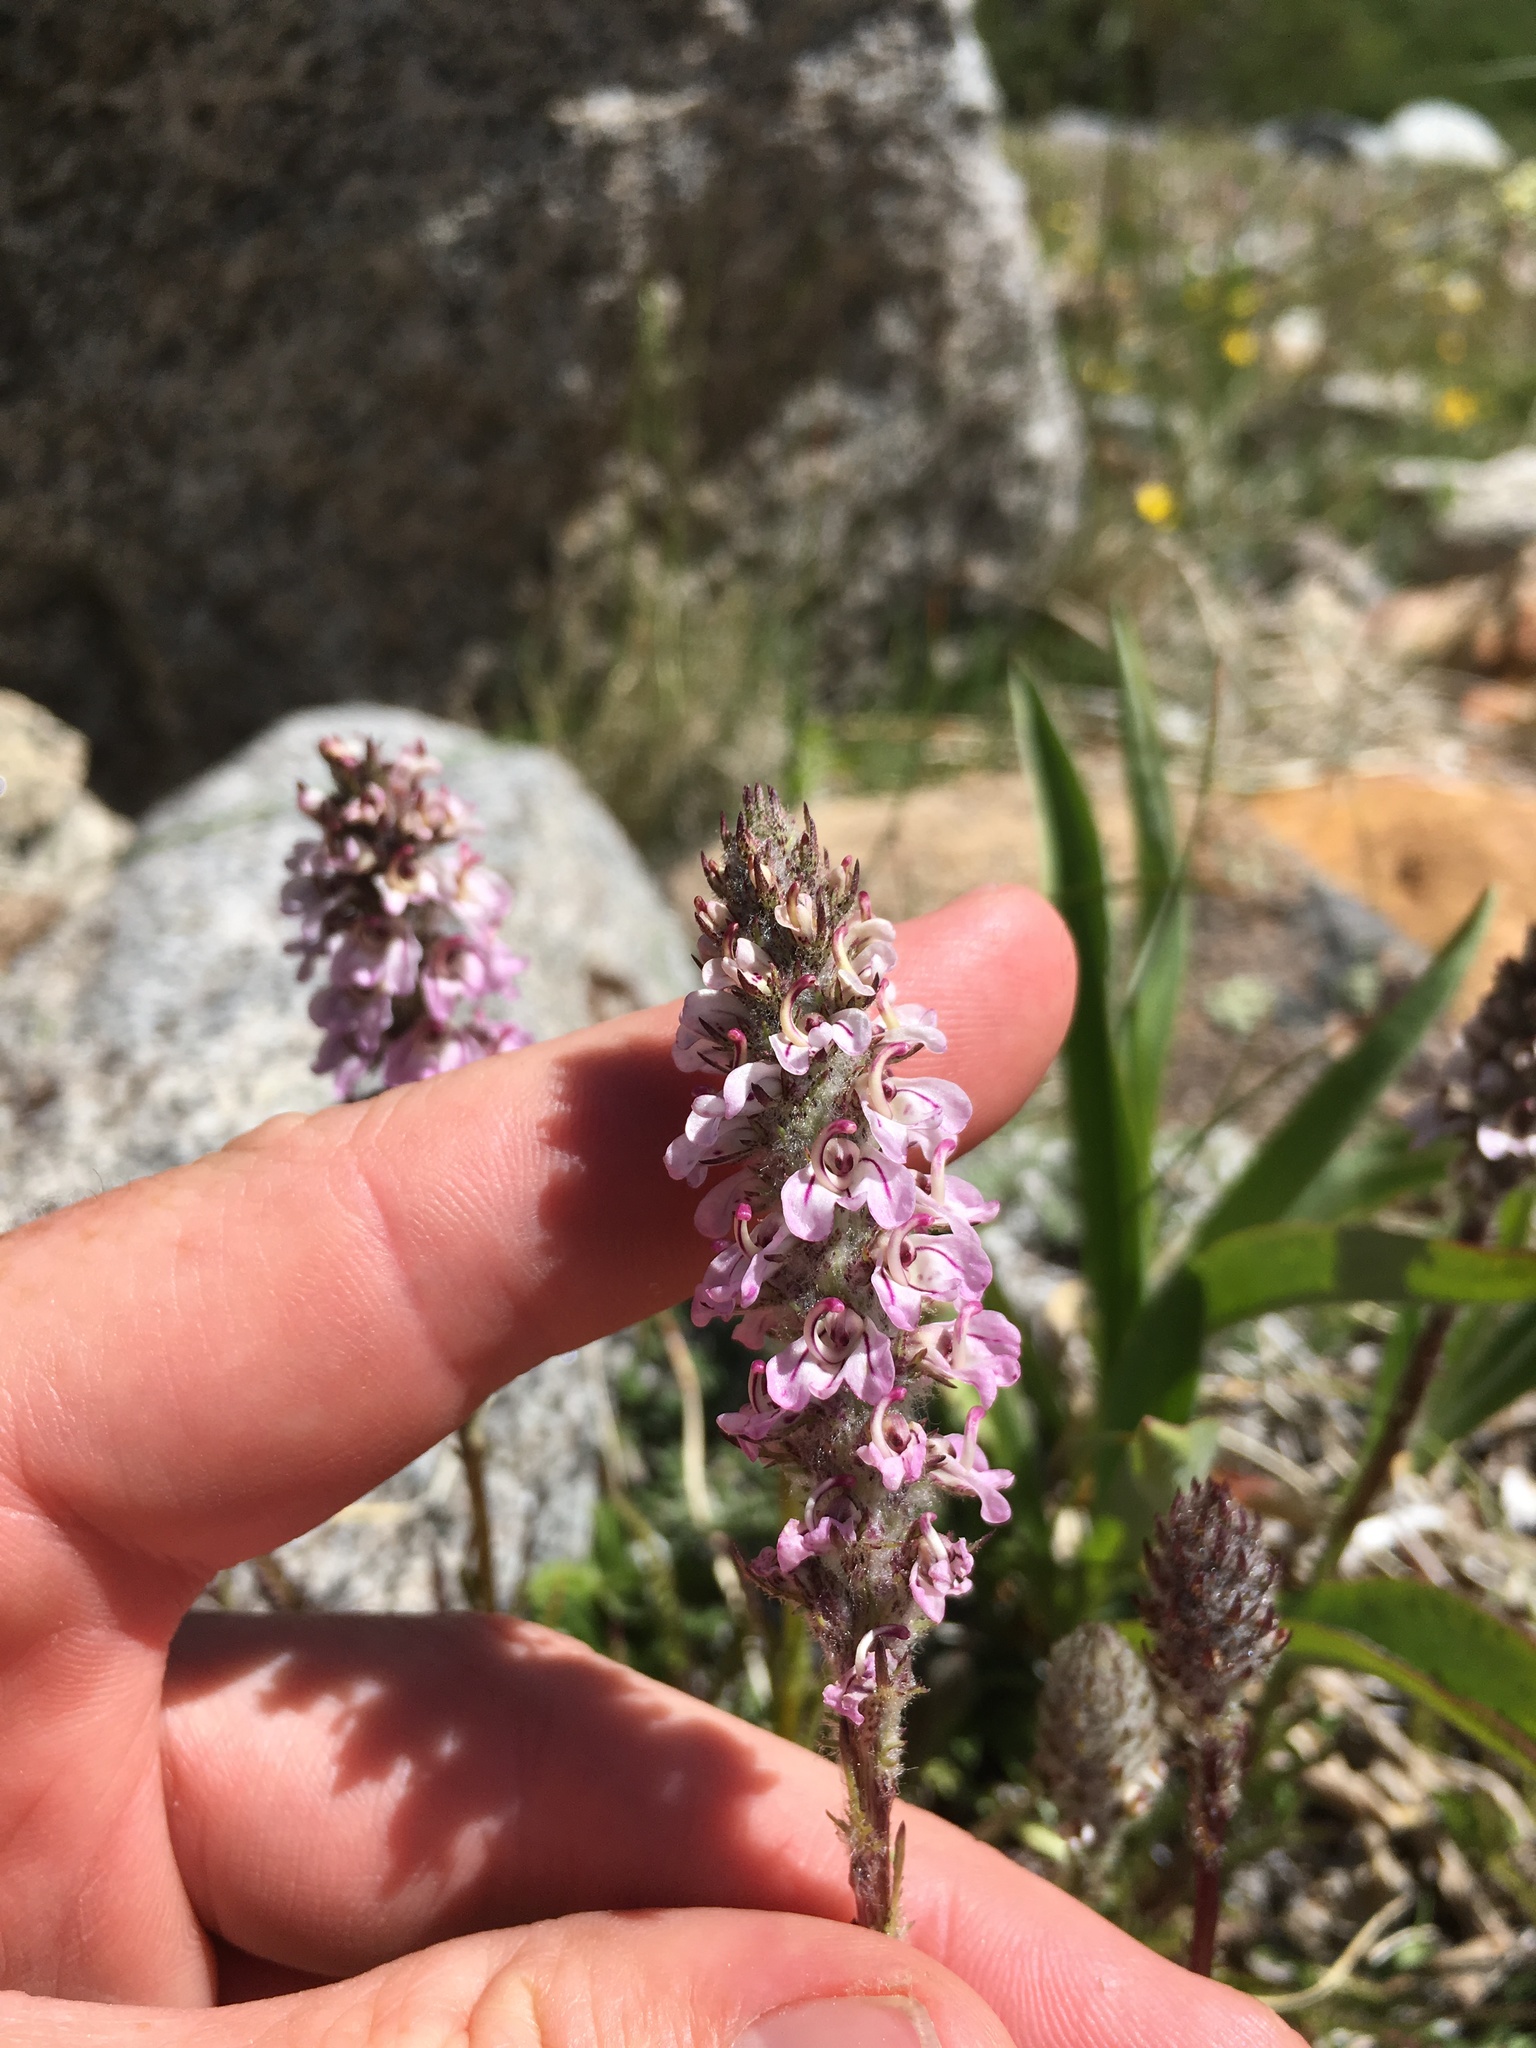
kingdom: Plantae
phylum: Tracheophyta
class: Magnoliopsida
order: Lamiales
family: Orobanchaceae
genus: Pedicularis
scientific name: Pedicularis attollens
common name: Slender pedicularis
